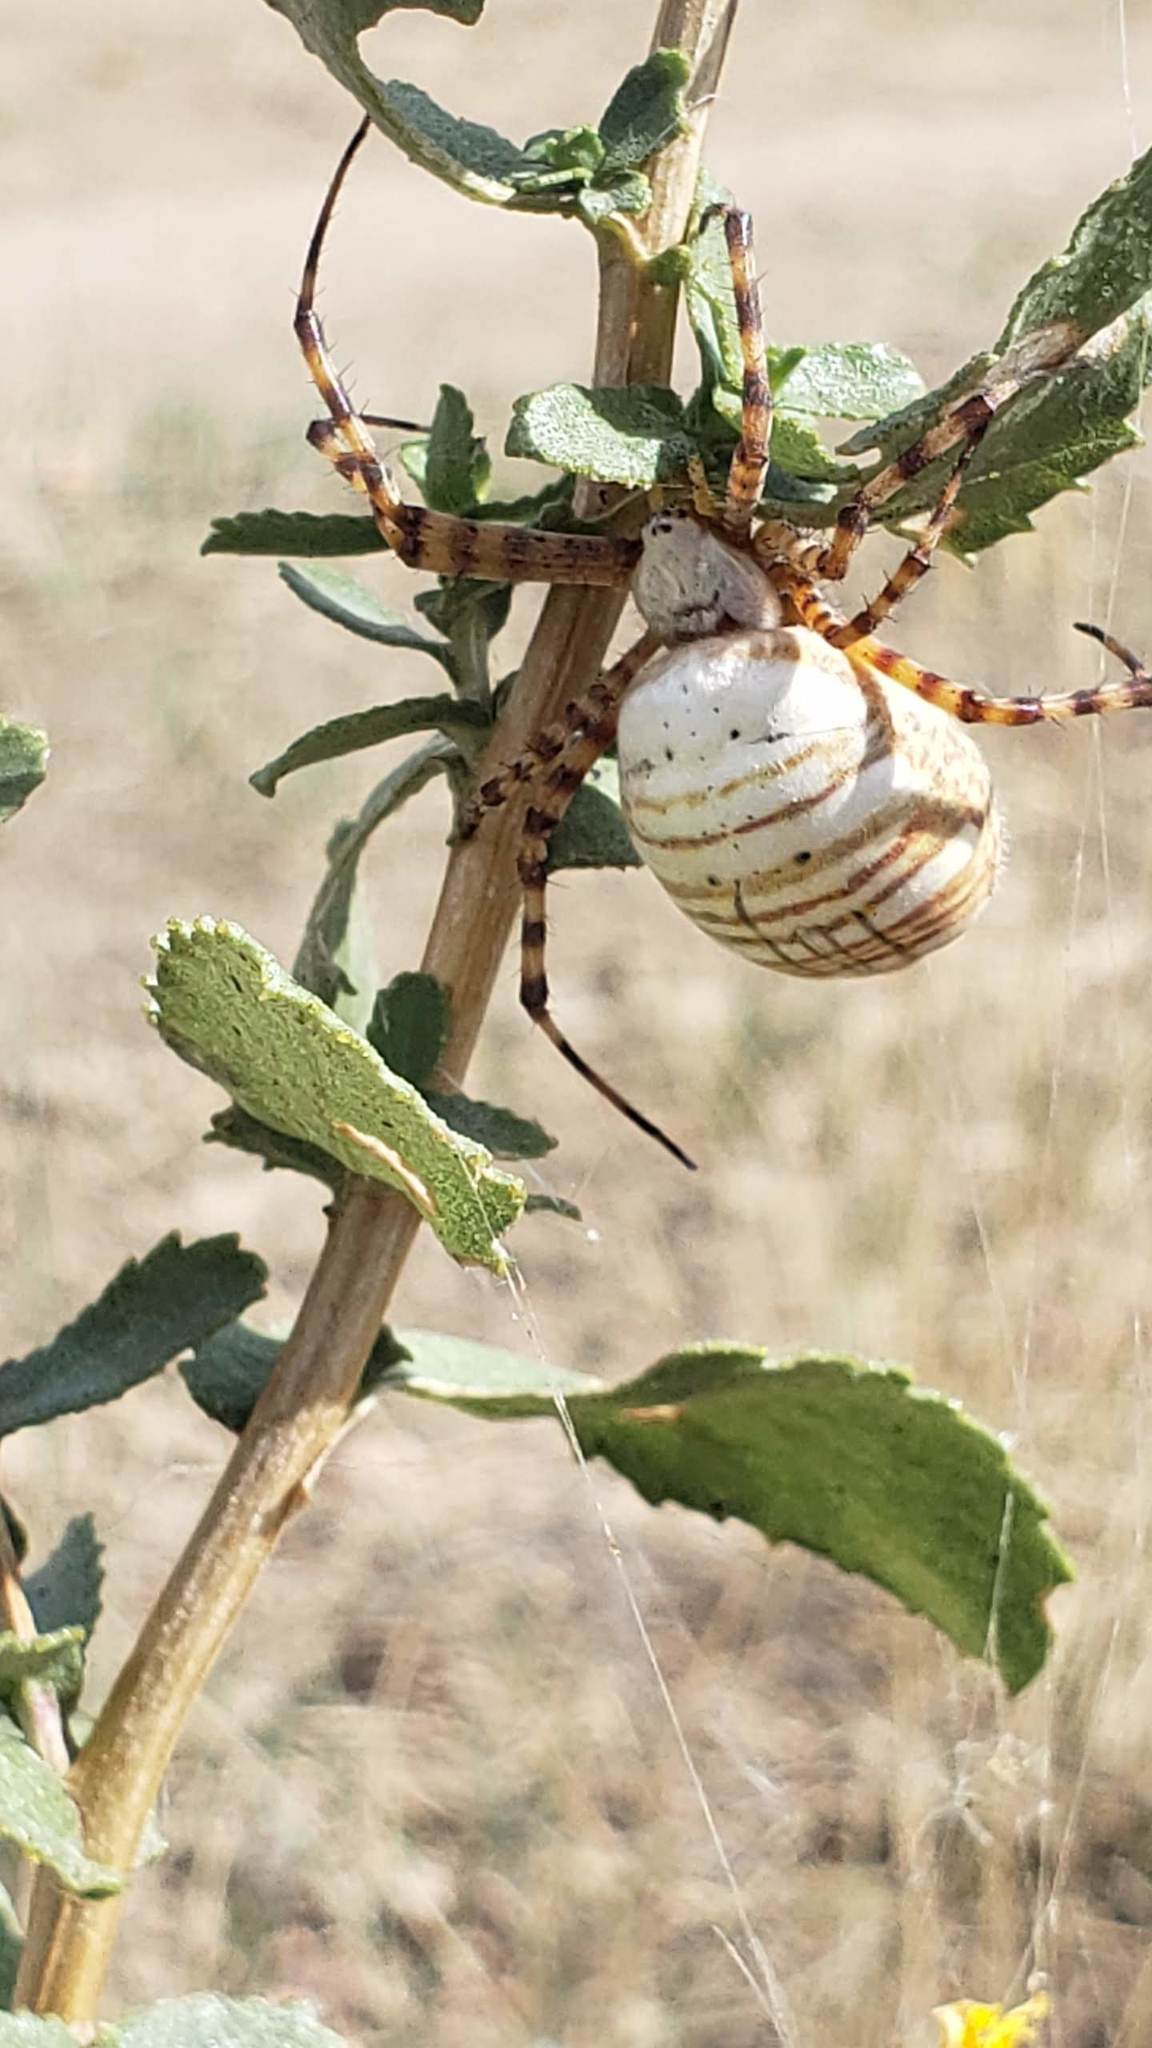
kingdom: Animalia
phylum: Arthropoda
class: Arachnida
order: Araneae
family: Araneidae
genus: Argiope
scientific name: Argiope trifasciata
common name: Banded garden spider
